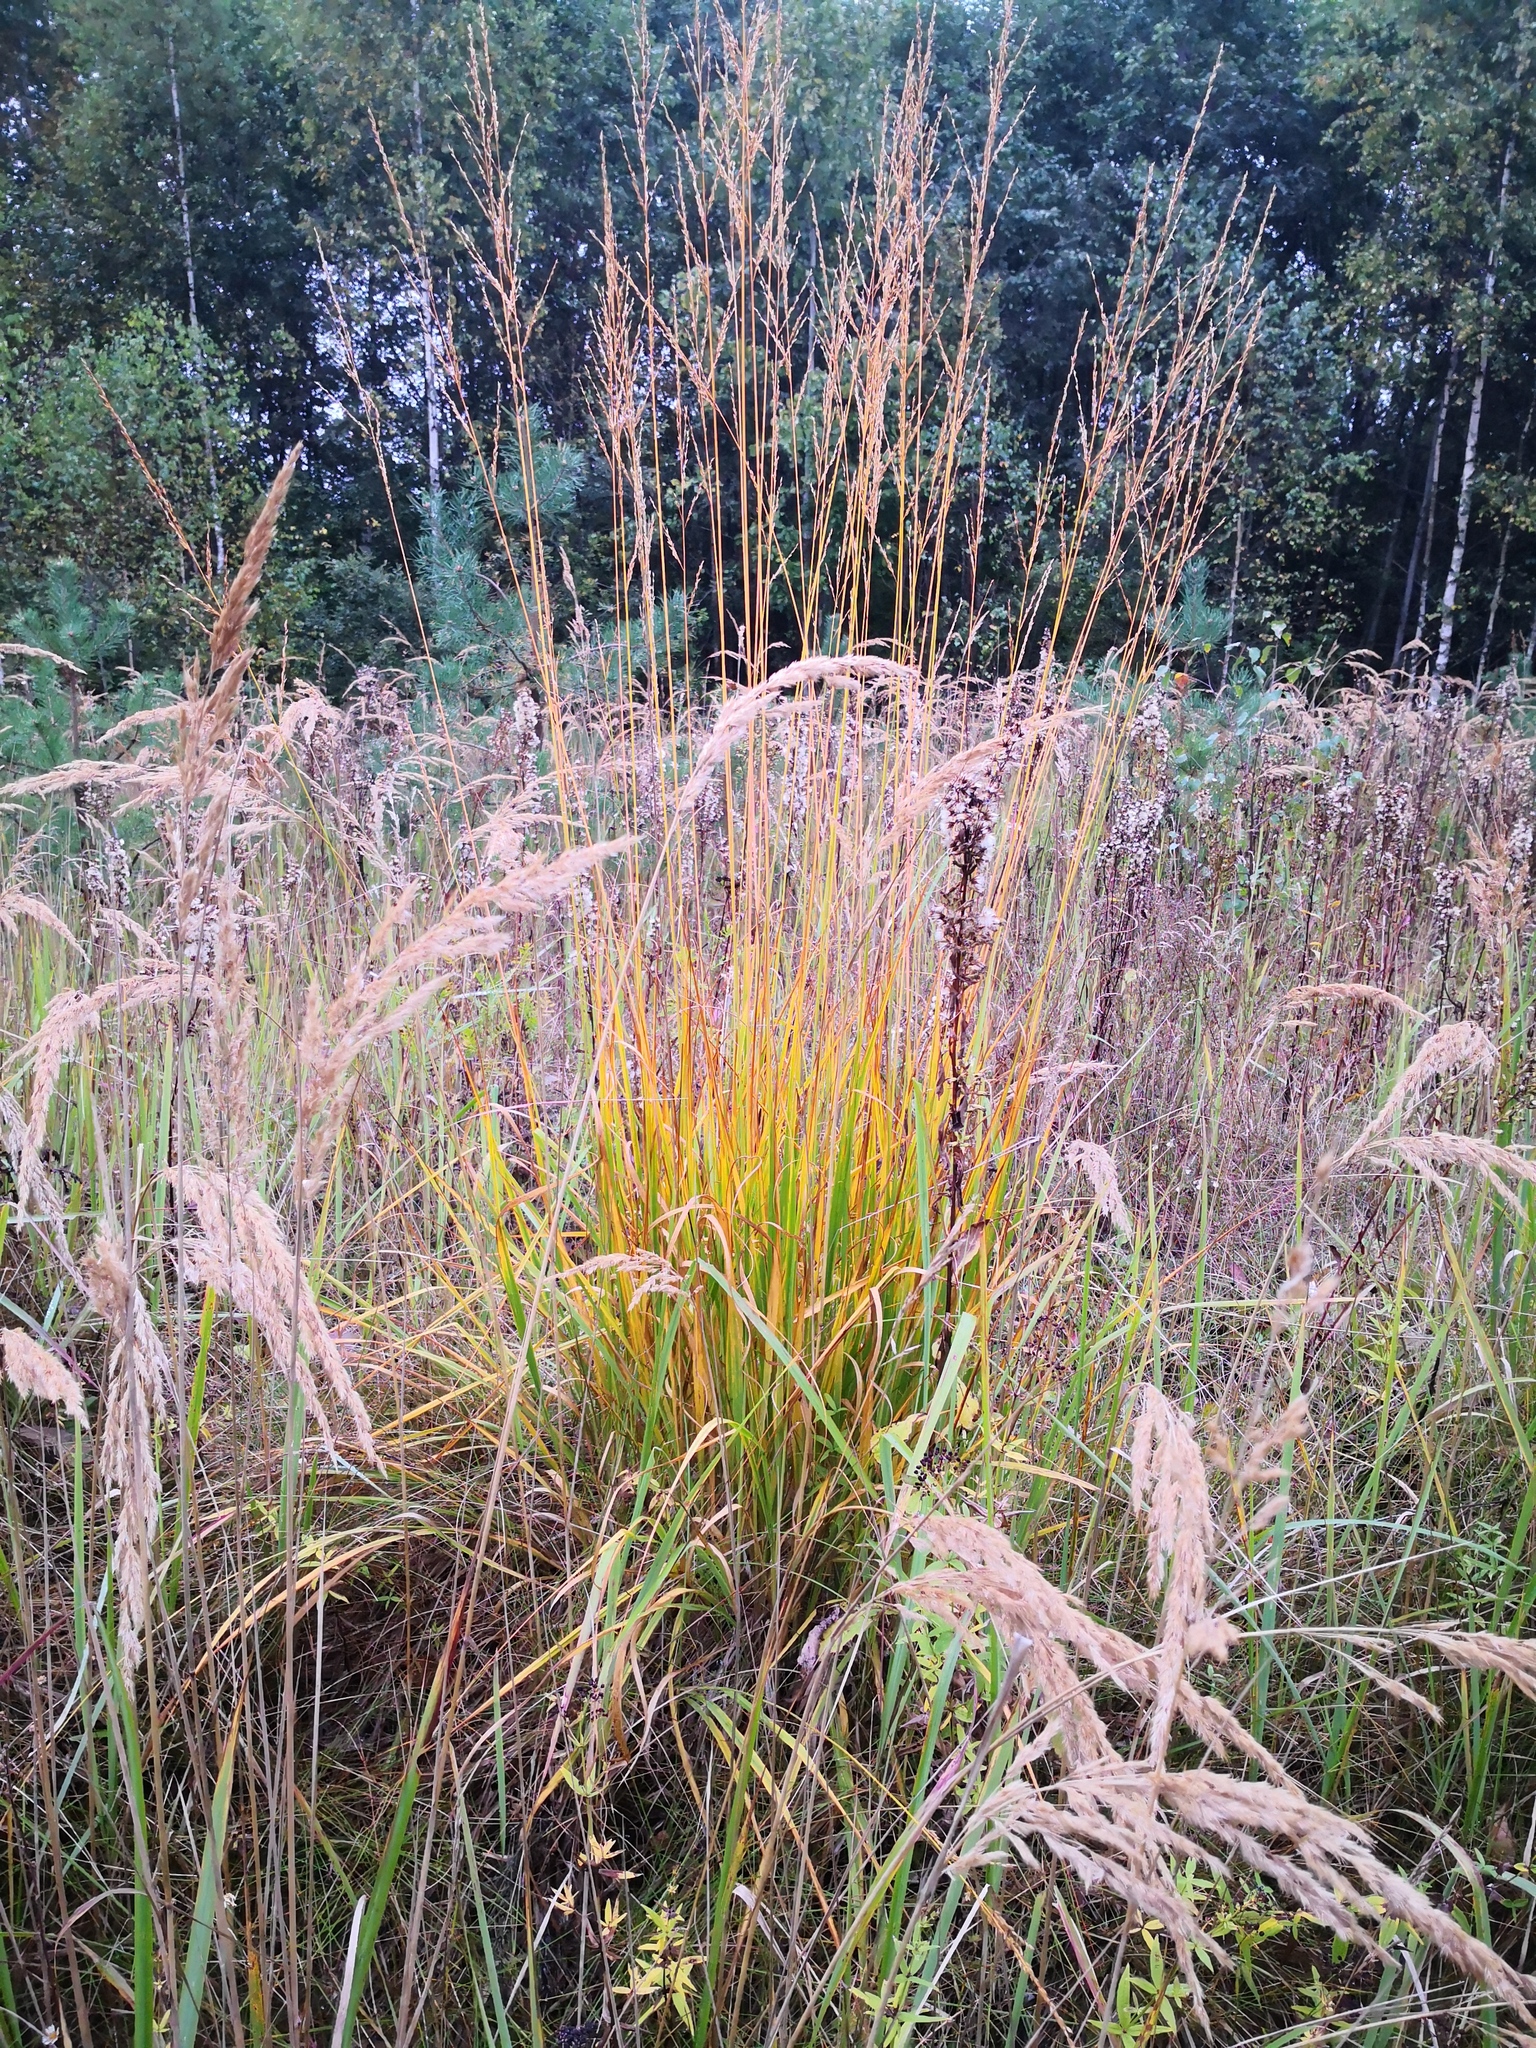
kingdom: Plantae
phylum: Tracheophyta
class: Liliopsida
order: Poales
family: Poaceae
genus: Molinia
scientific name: Molinia caerulea
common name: Purple moor-grass
